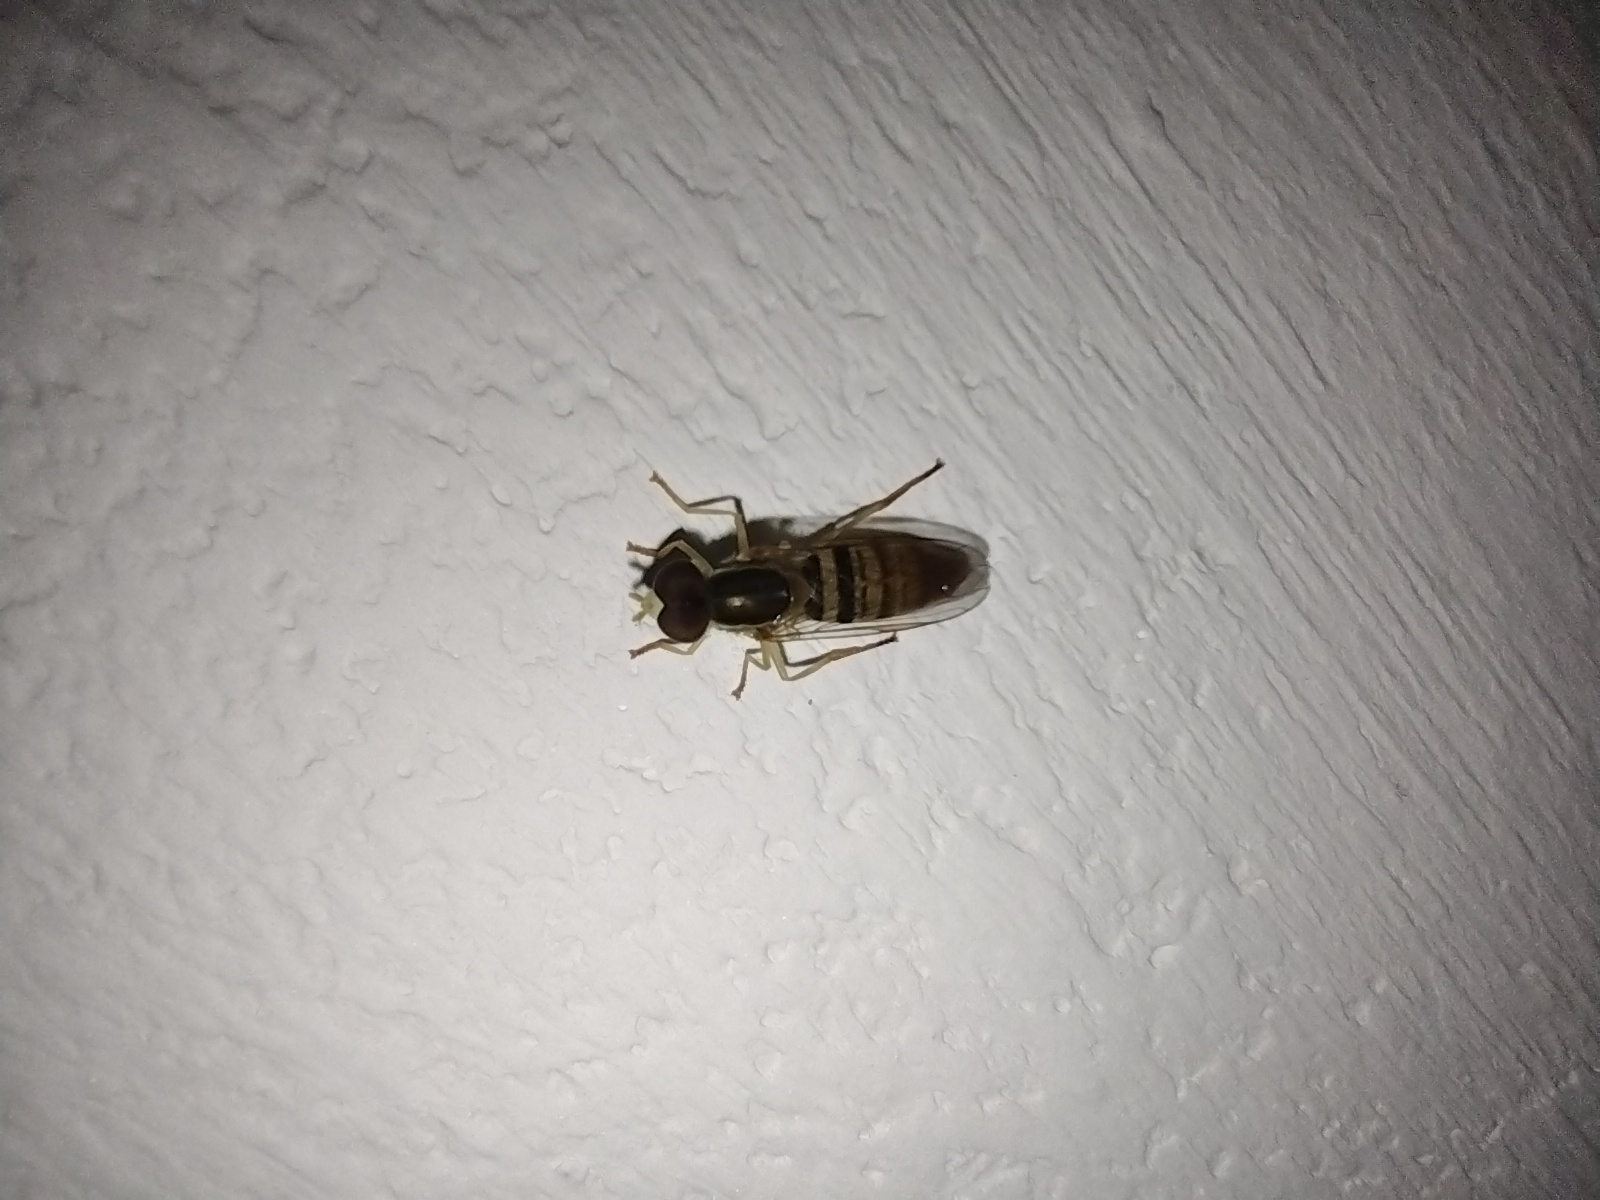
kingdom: Animalia
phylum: Arthropoda
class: Insecta
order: Diptera
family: Syrphidae
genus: Toxomerus
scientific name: Toxomerus politus
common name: Maize calligrapher
